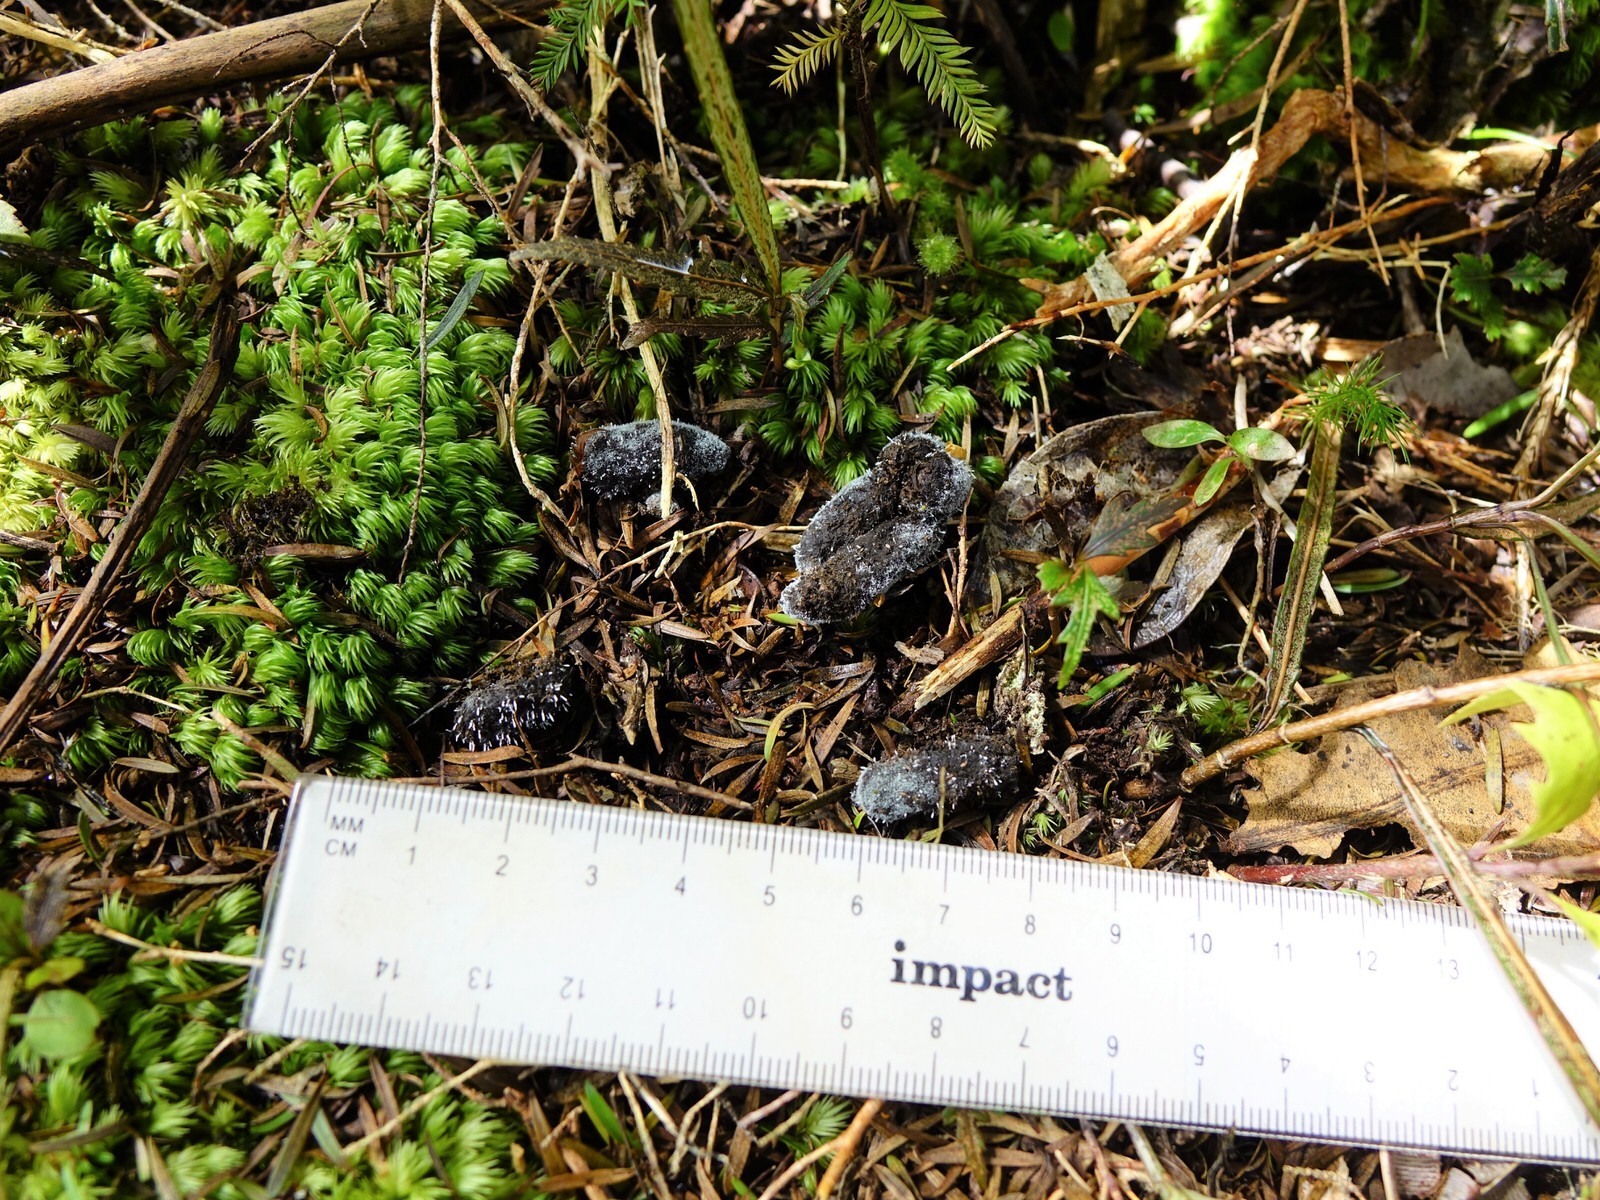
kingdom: Animalia
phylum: Chordata
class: Mammalia
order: Diprotodontia
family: Phalangeridae
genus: Trichosurus
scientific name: Trichosurus vulpecula
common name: Common brushtail
